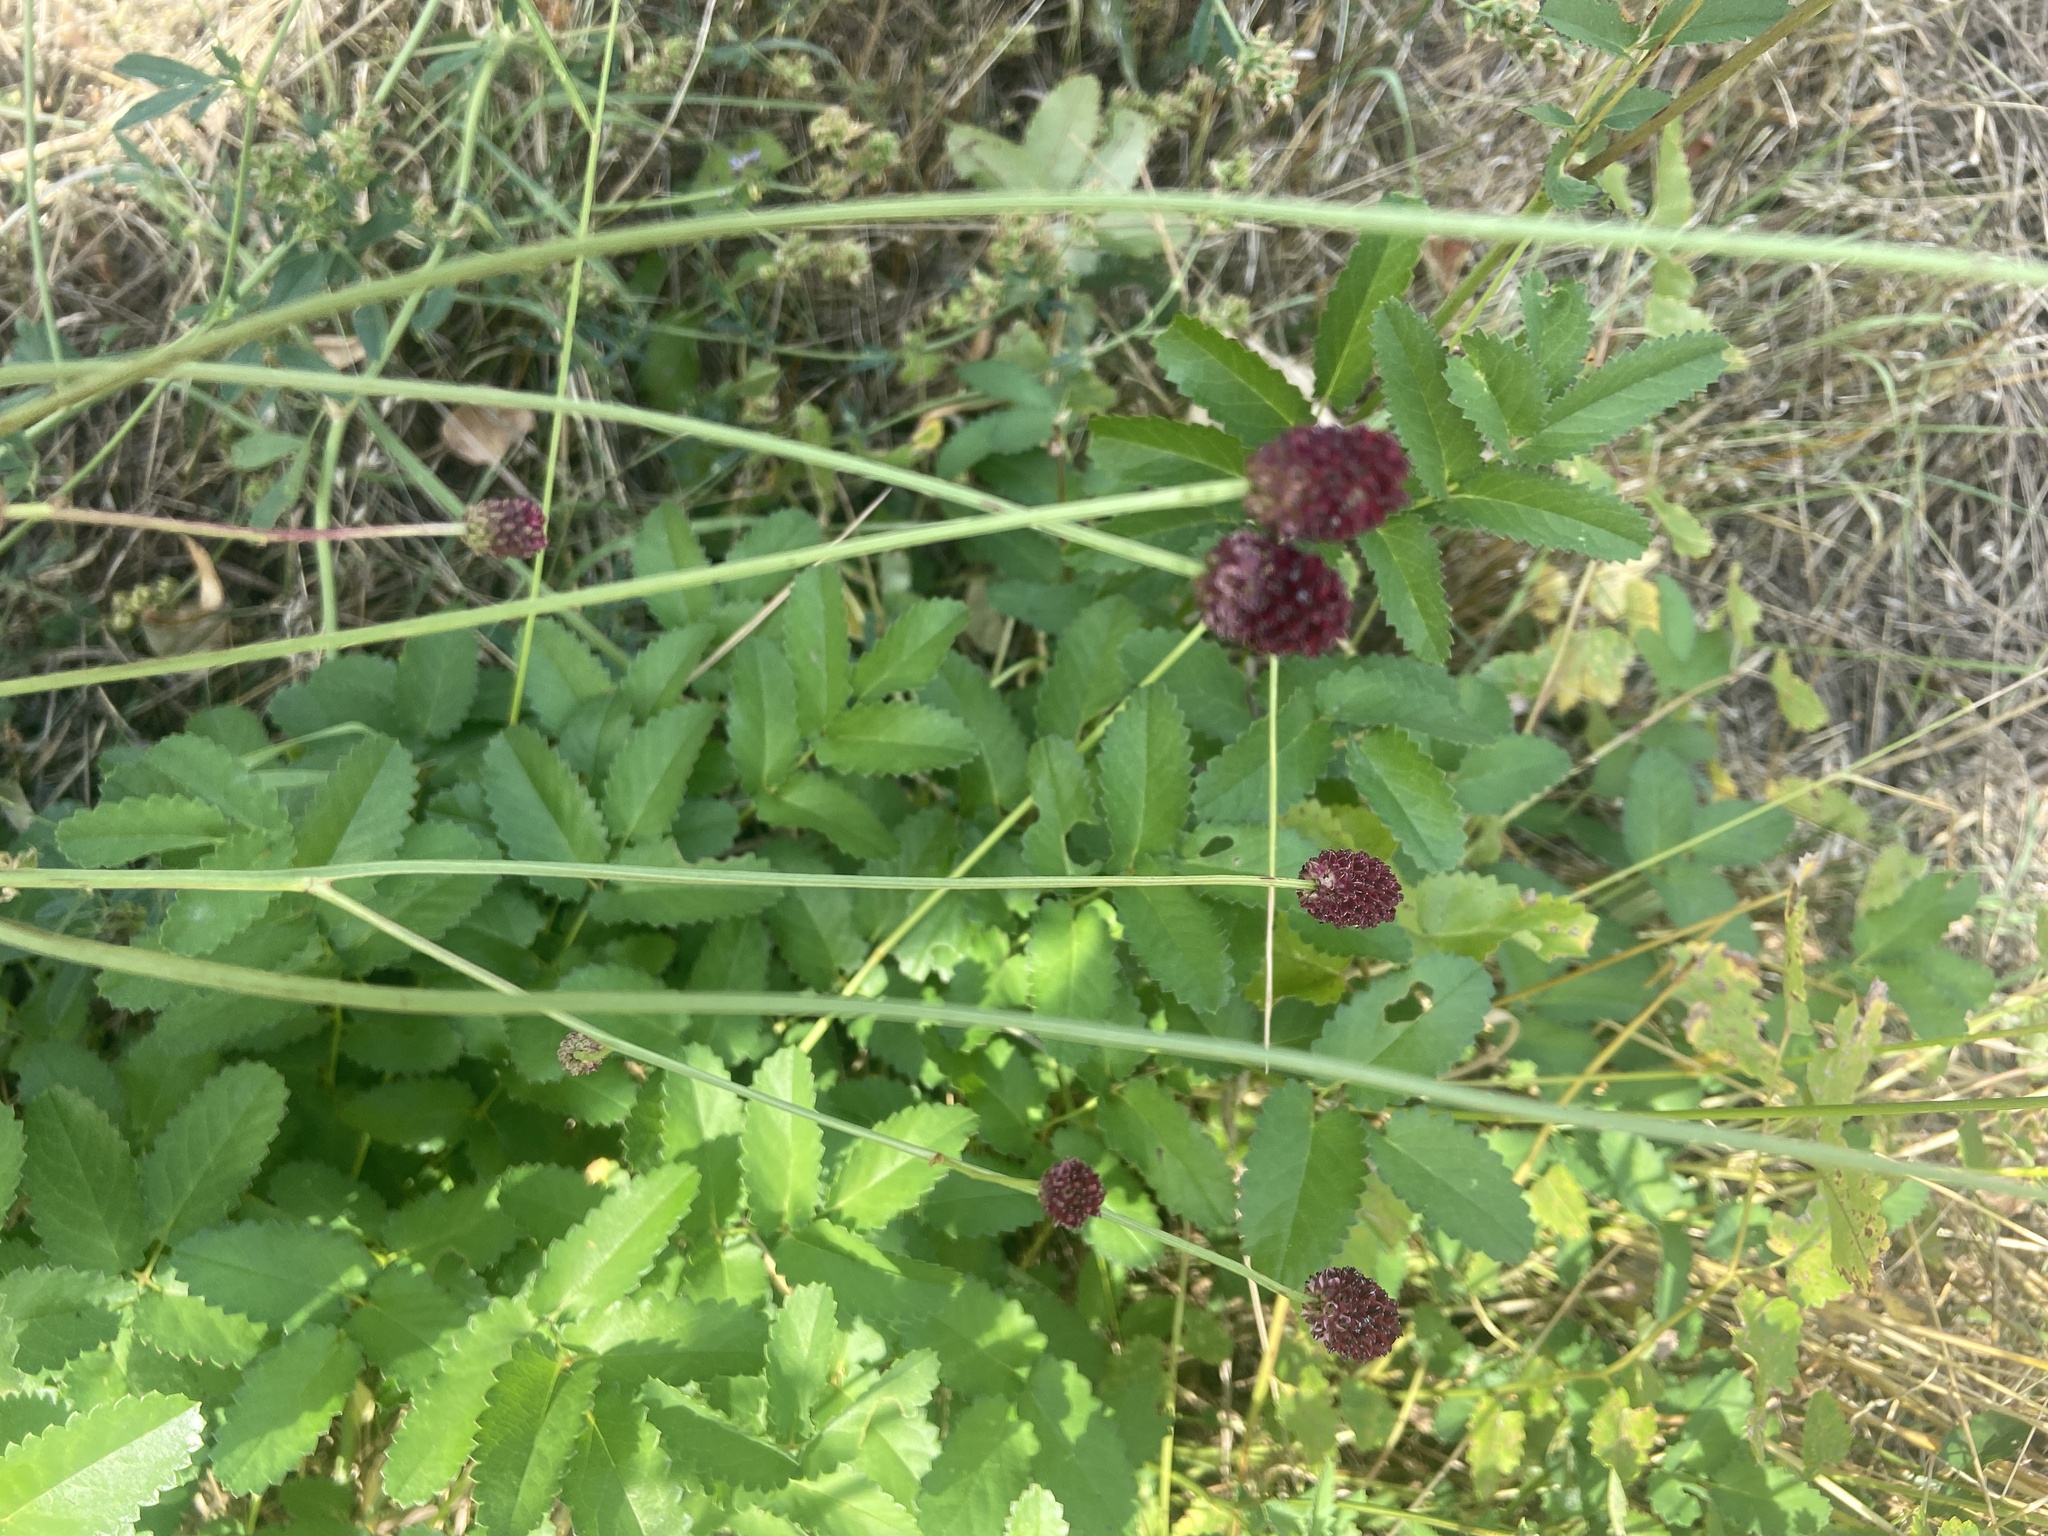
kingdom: Plantae
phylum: Tracheophyta
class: Magnoliopsida
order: Rosales
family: Rosaceae
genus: Sanguisorba
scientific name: Sanguisorba officinalis
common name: Great burnet
